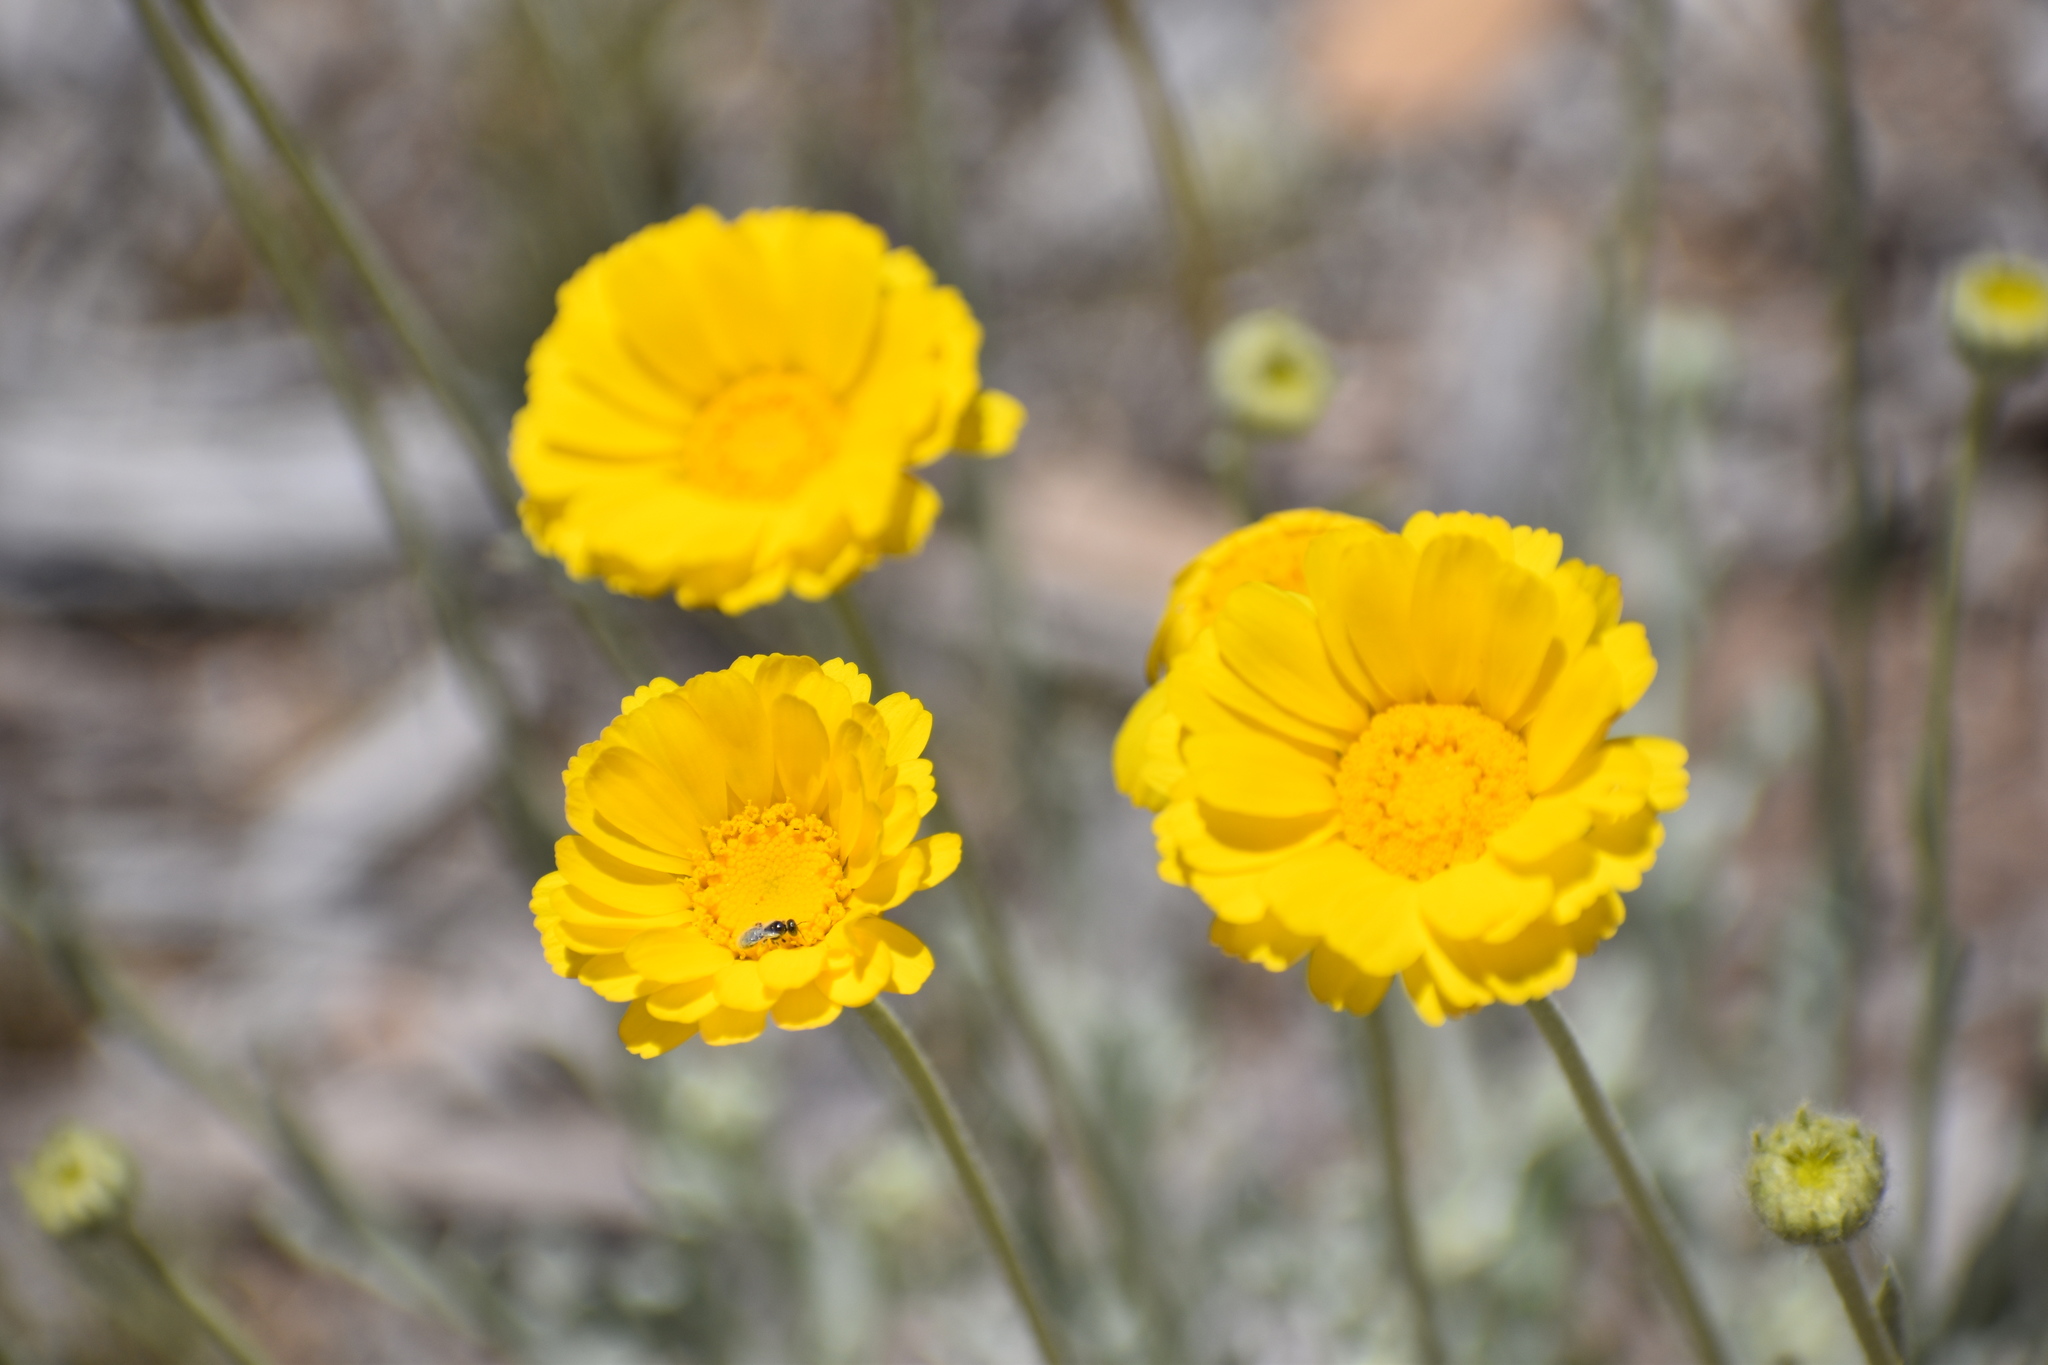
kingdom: Plantae
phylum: Tracheophyta
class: Magnoliopsida
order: Asterales
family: Asteraceae
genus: Baileya
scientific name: Baileya multiradiata
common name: Desert-marigold
